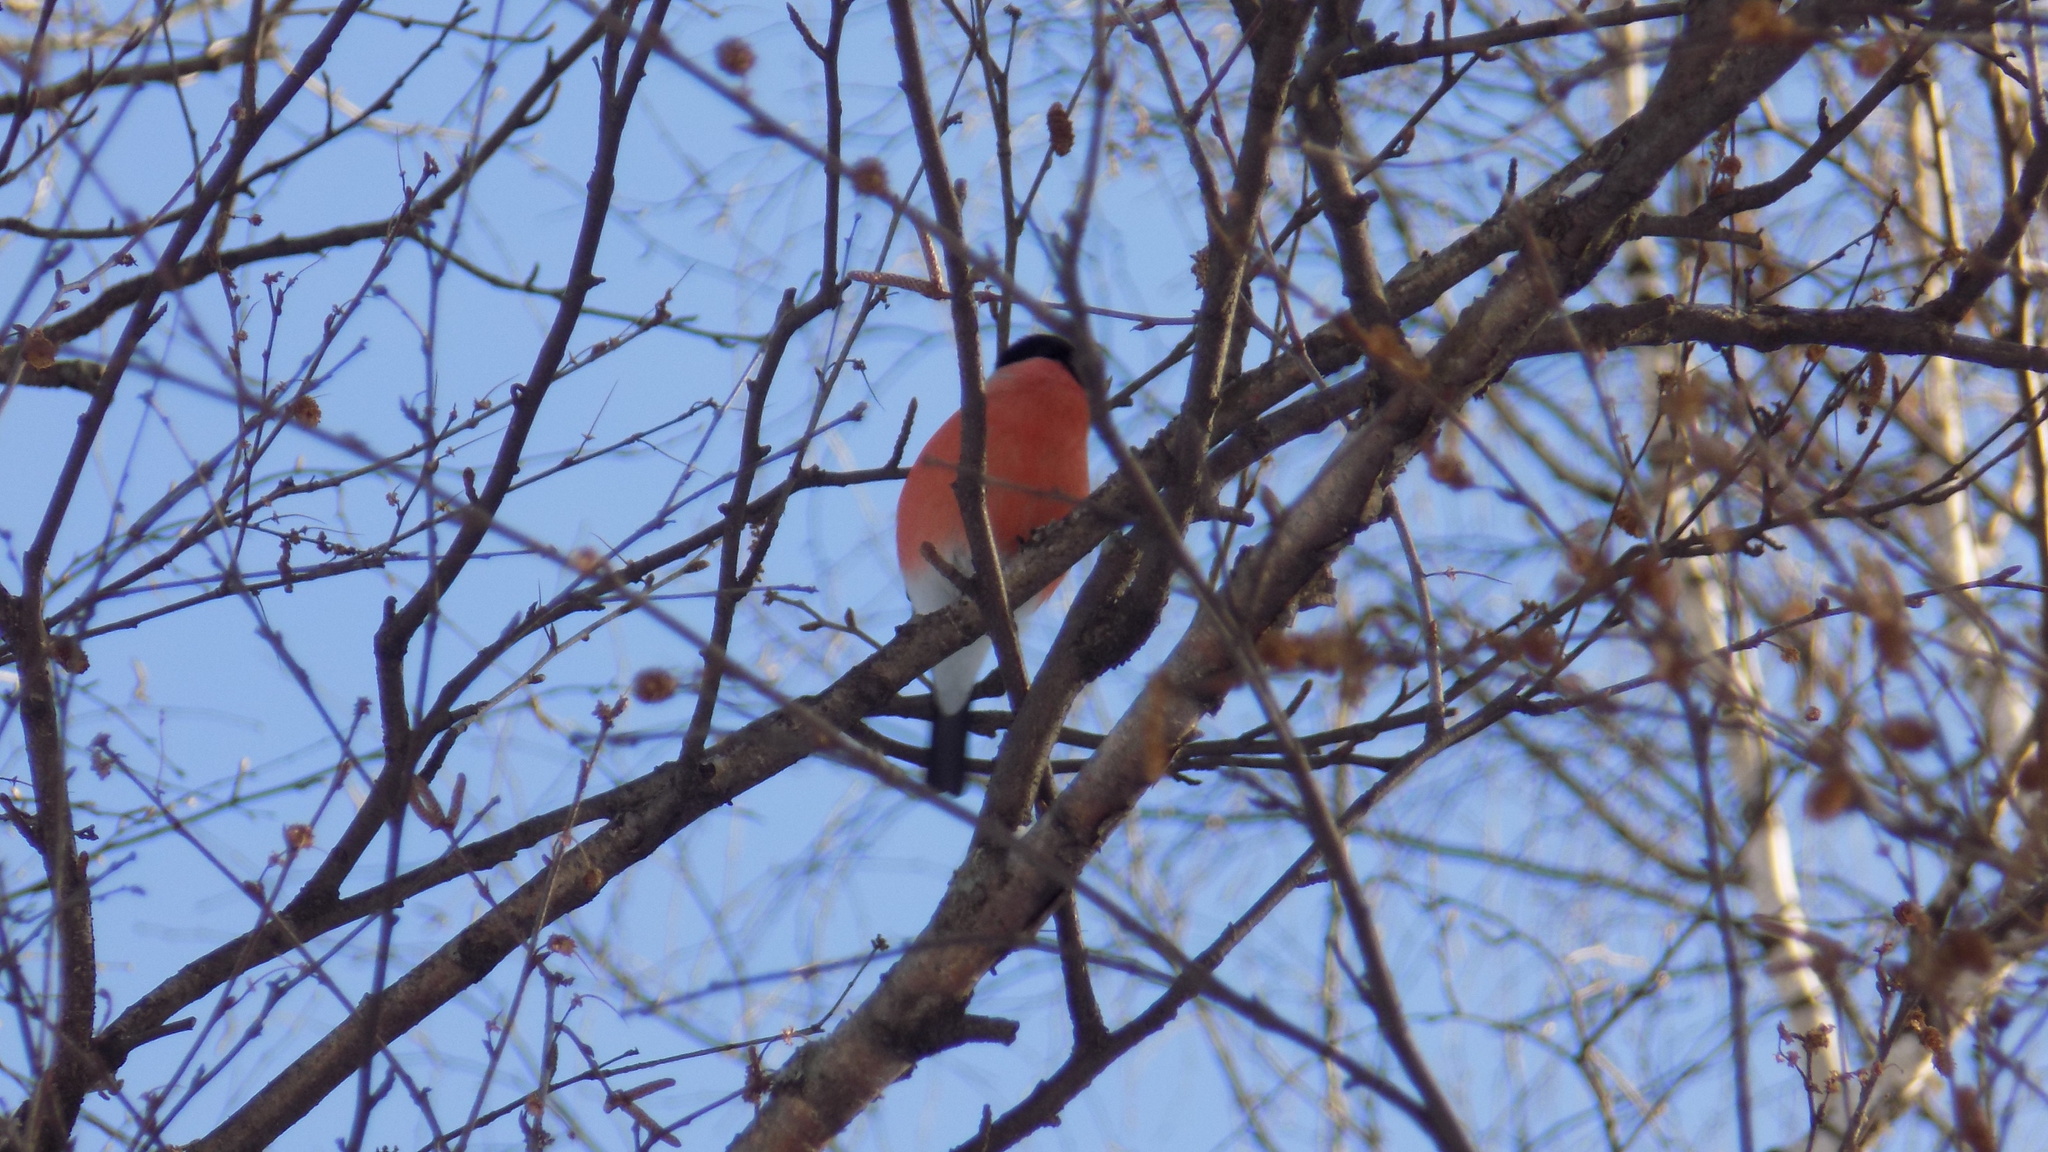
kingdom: Animalia
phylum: Chordata
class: Aves
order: Passeriformes
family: Fringillidae
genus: Pyrrhula
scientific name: Pyrrhula pyrrhula
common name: Eurasian bullfinch
